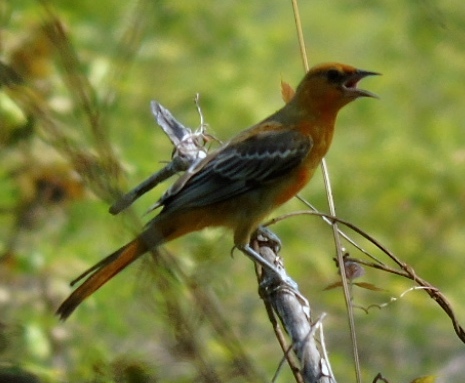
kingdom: Animalia
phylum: Chordata
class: Aves
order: Passeriformes
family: Icteridae
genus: Icterus
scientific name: Icterus pustulatus
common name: Streak-backed oriole
